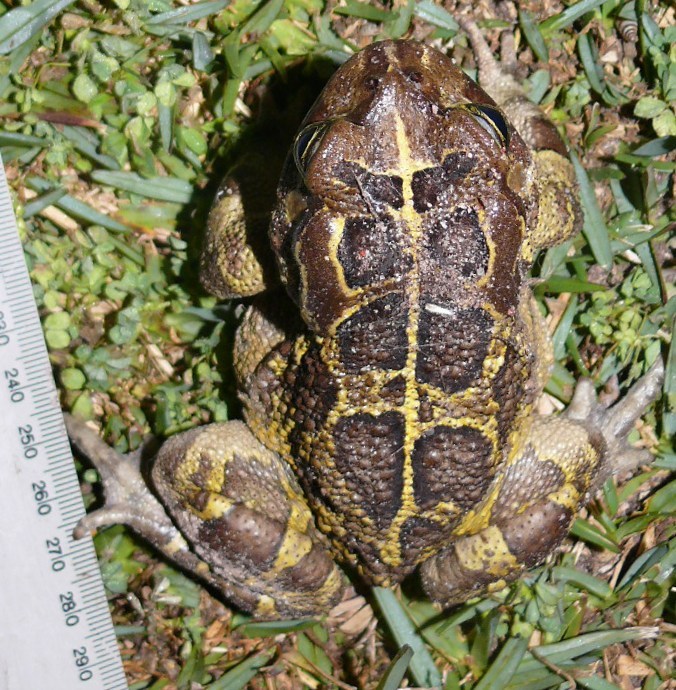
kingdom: Animalia
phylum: Chordata
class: Amphibia
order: Anura
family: Bufonidae
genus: Sclerophrys
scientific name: Sclerophrys pantherina
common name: Panther toad
